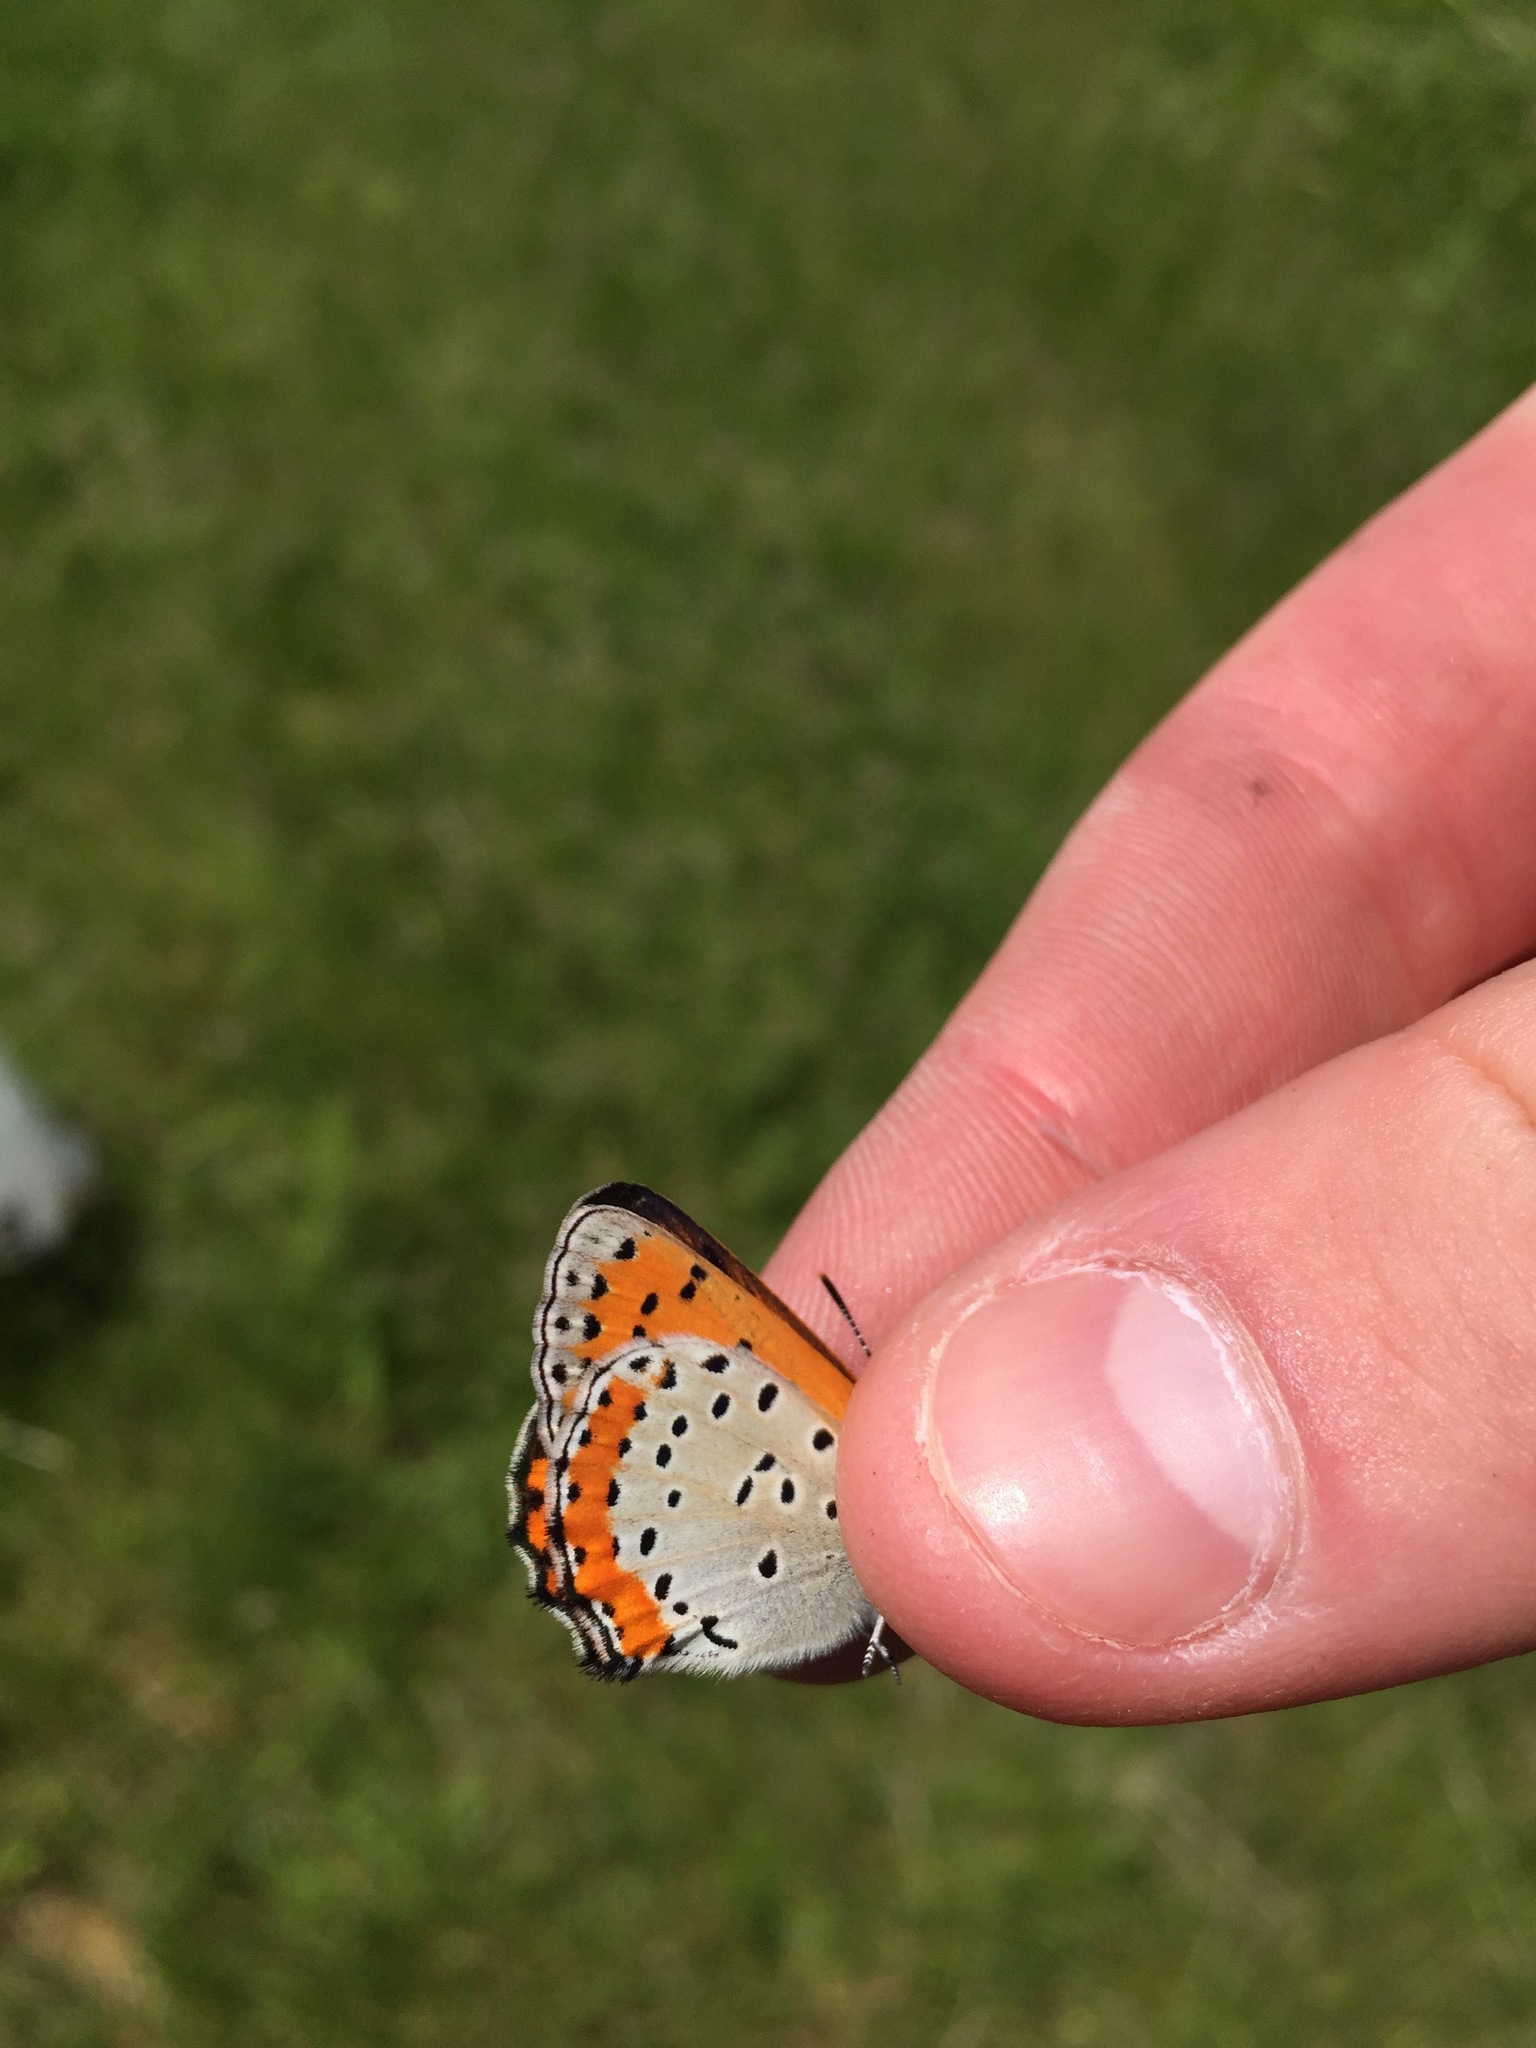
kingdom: Animalia
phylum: Arthropoda
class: Insecta
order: Lepidoptera
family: Lycaenidae
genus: Tharsalea
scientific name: Tharsalea hyllus
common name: Bronze copper
